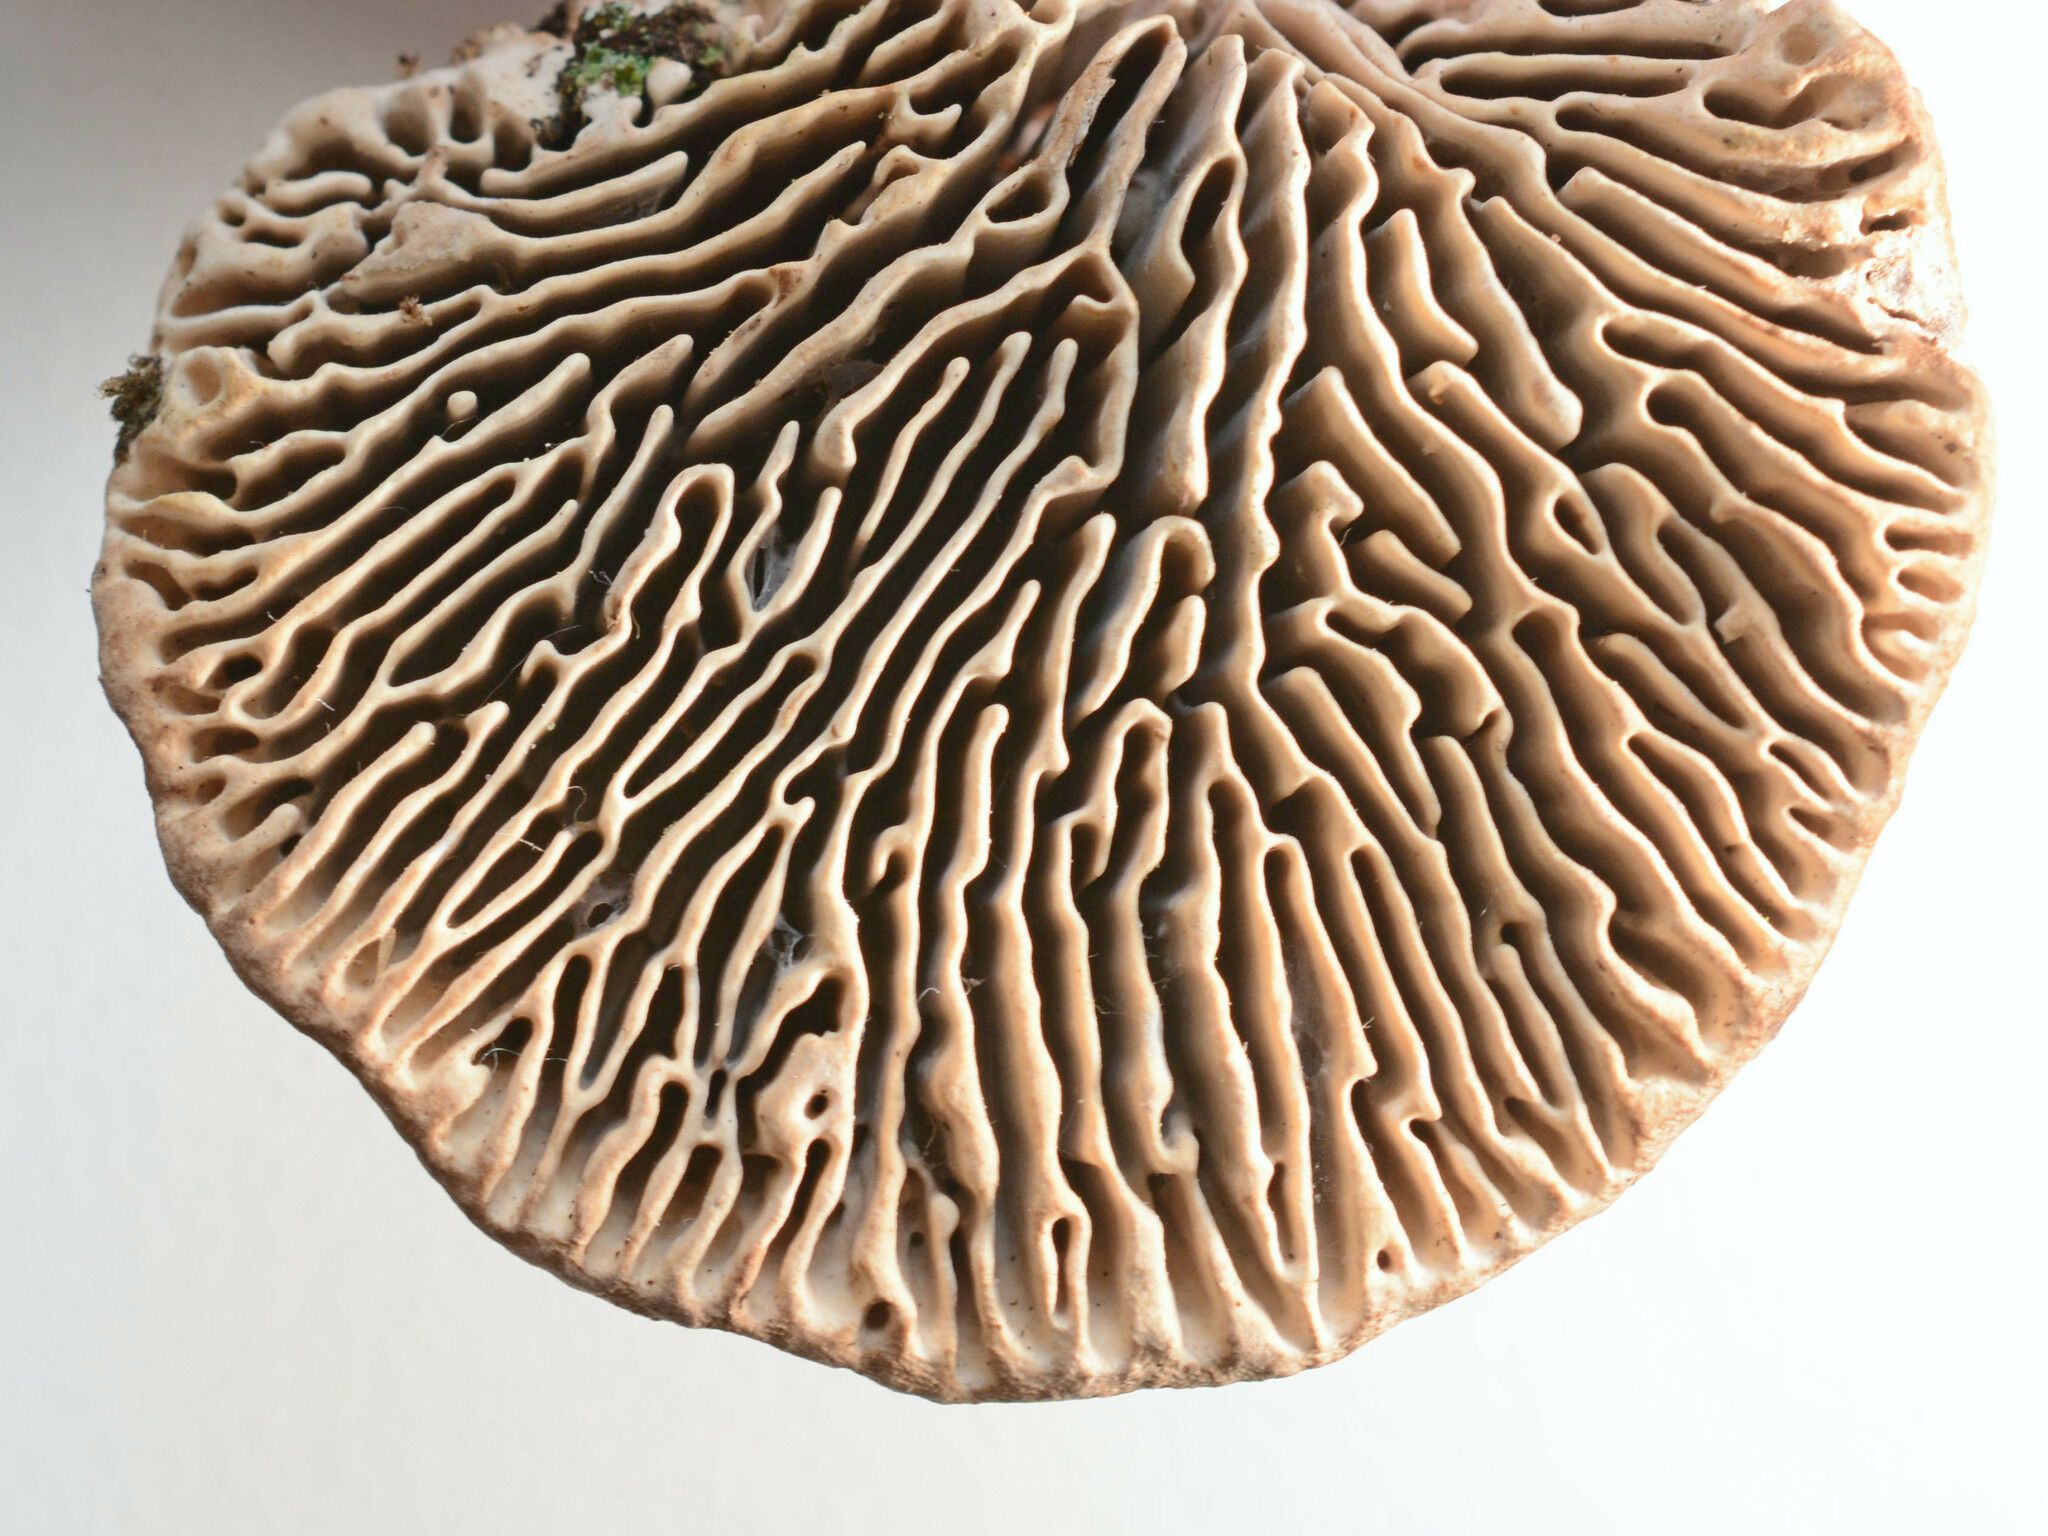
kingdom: Fungi
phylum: Basidiomycota
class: Agaricomycetes
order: Polyporales
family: Fomitopsidaceae
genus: Fomitopsis
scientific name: Fomitopsis
